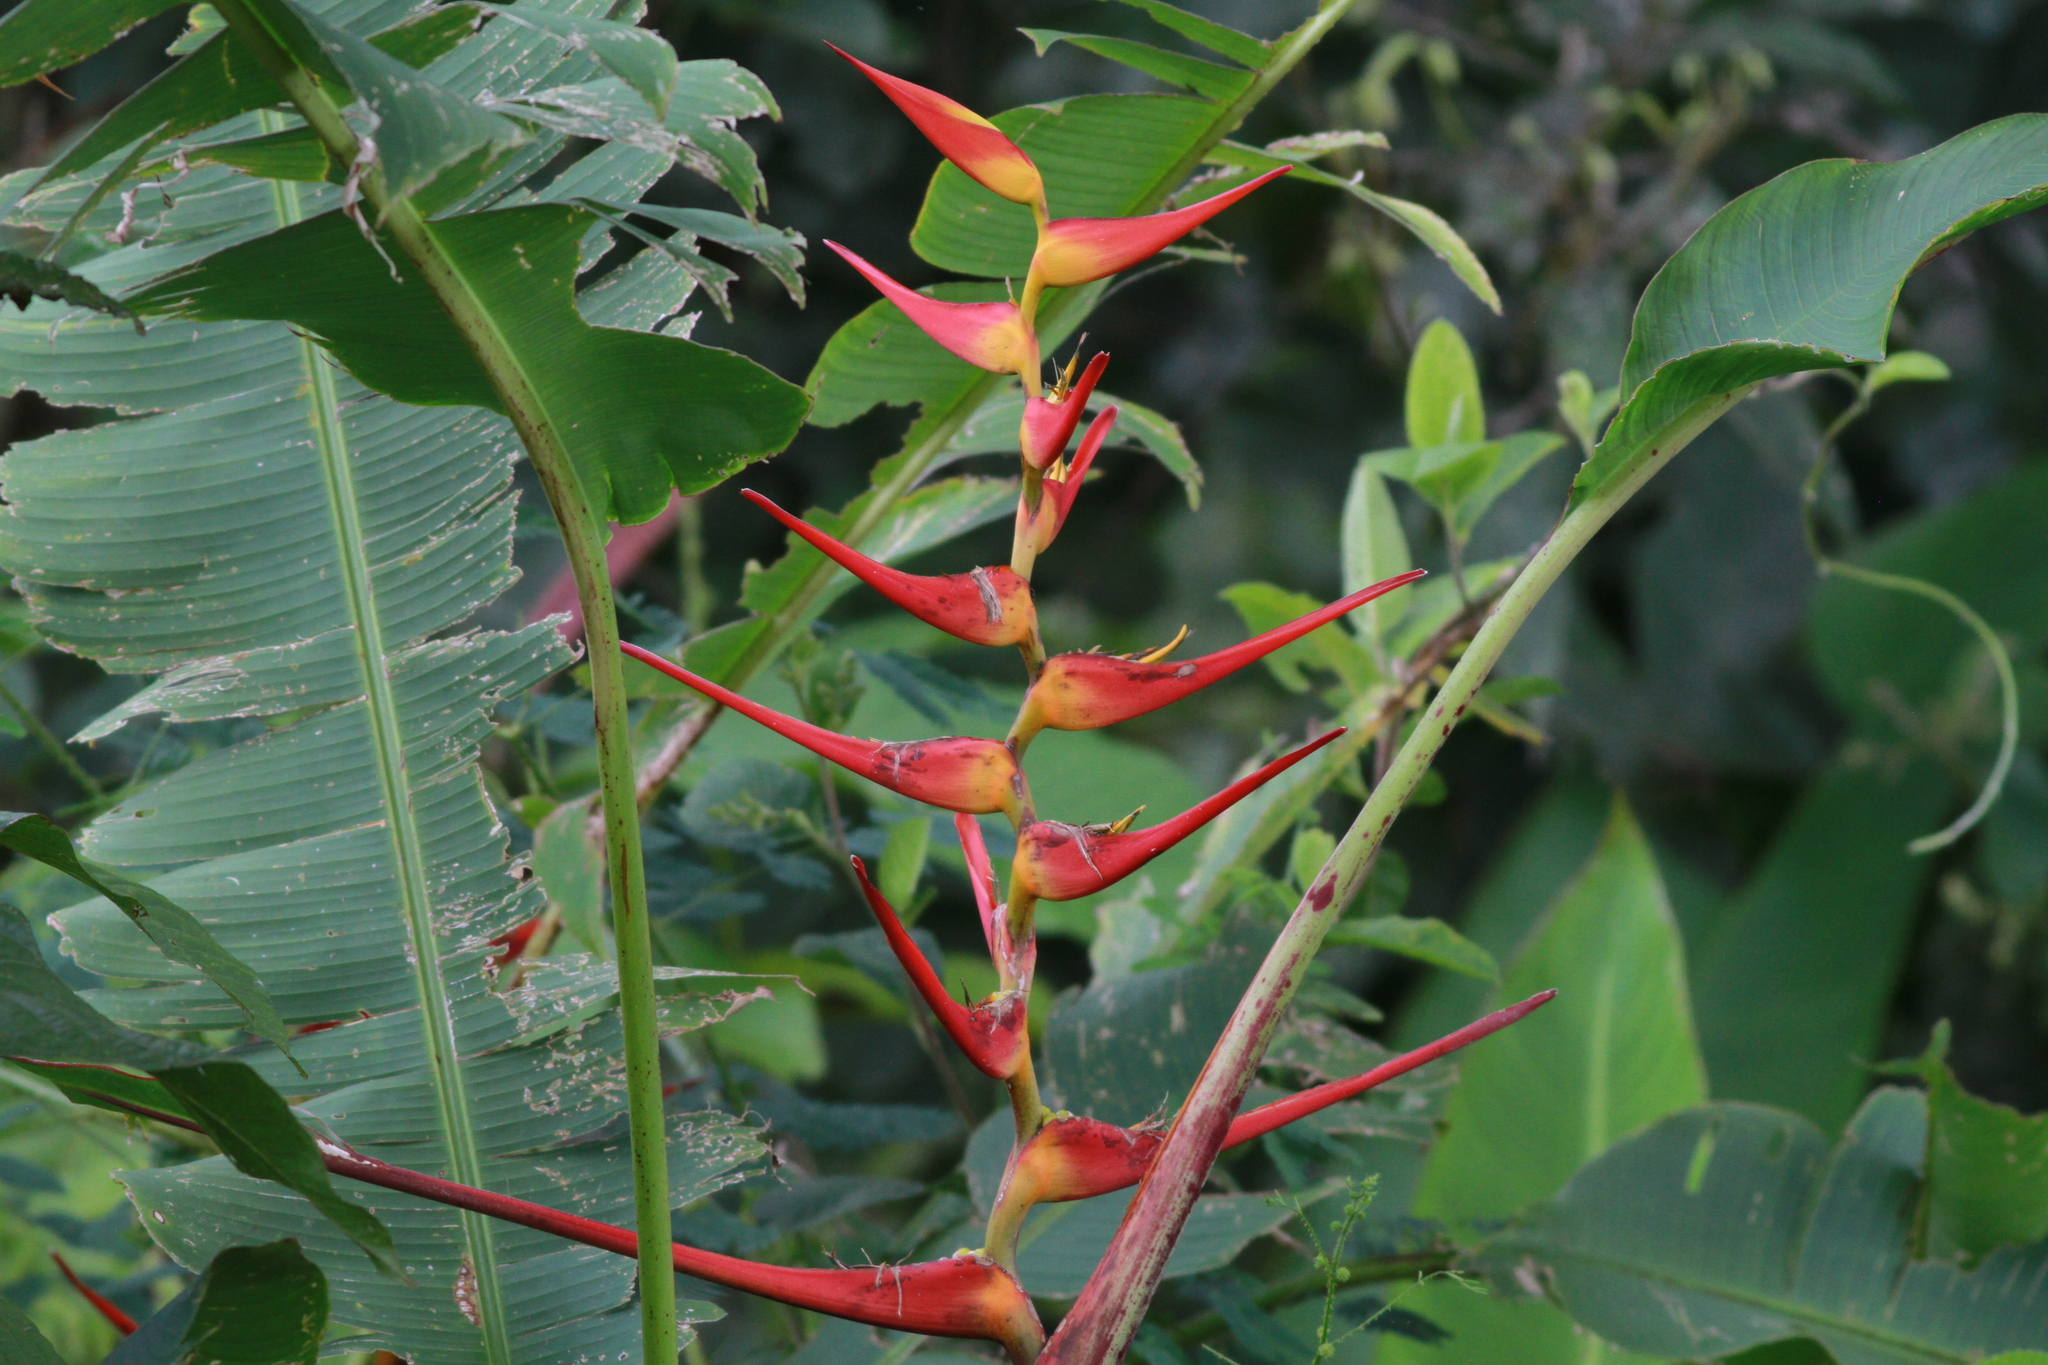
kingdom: Plantae
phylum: Tracheophyta
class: Liliopsida
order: Zingiberales
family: Heliconiaceae
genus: Heliconia
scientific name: Heliconia latispatha
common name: Expanded lobsterclaw
